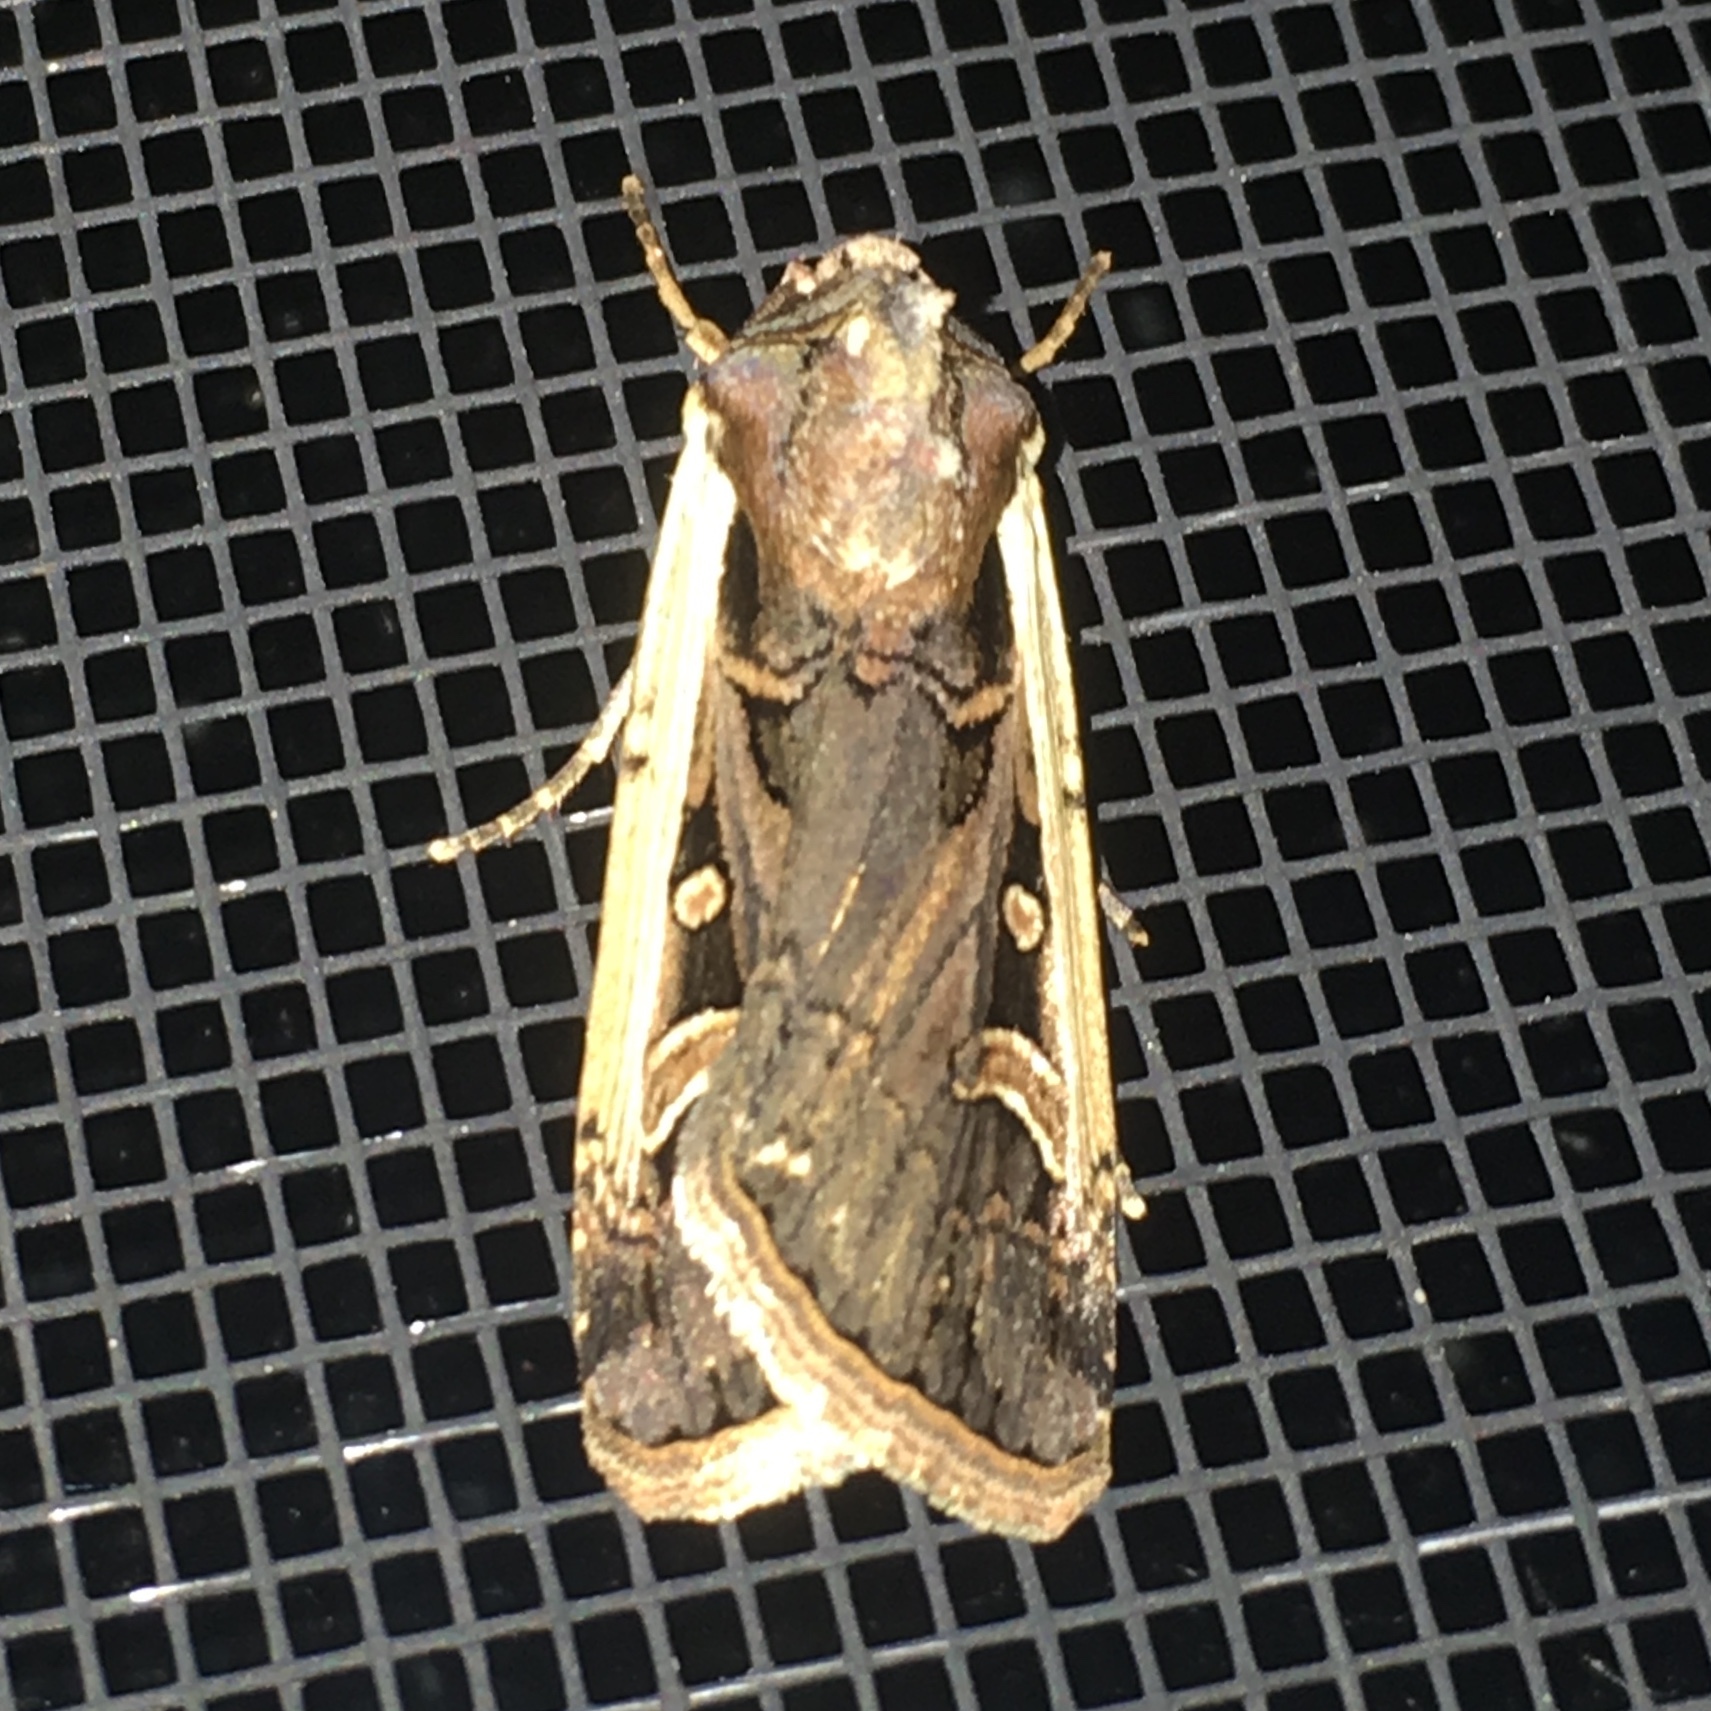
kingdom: Animalia
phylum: Arthropoda
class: Insecta
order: Lepidoptera
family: Noctuidae
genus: Striacosta
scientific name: Striacosta albicosta
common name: Western bean cutworm moth
